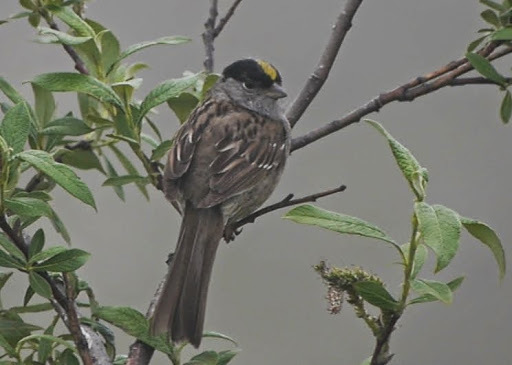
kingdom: Animalia
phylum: Chordata
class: Aves
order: Passeriformes
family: Passerellidae
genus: Zonotrichia
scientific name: Zonotrichia atricapilla
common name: Golden-crowned sparrow
